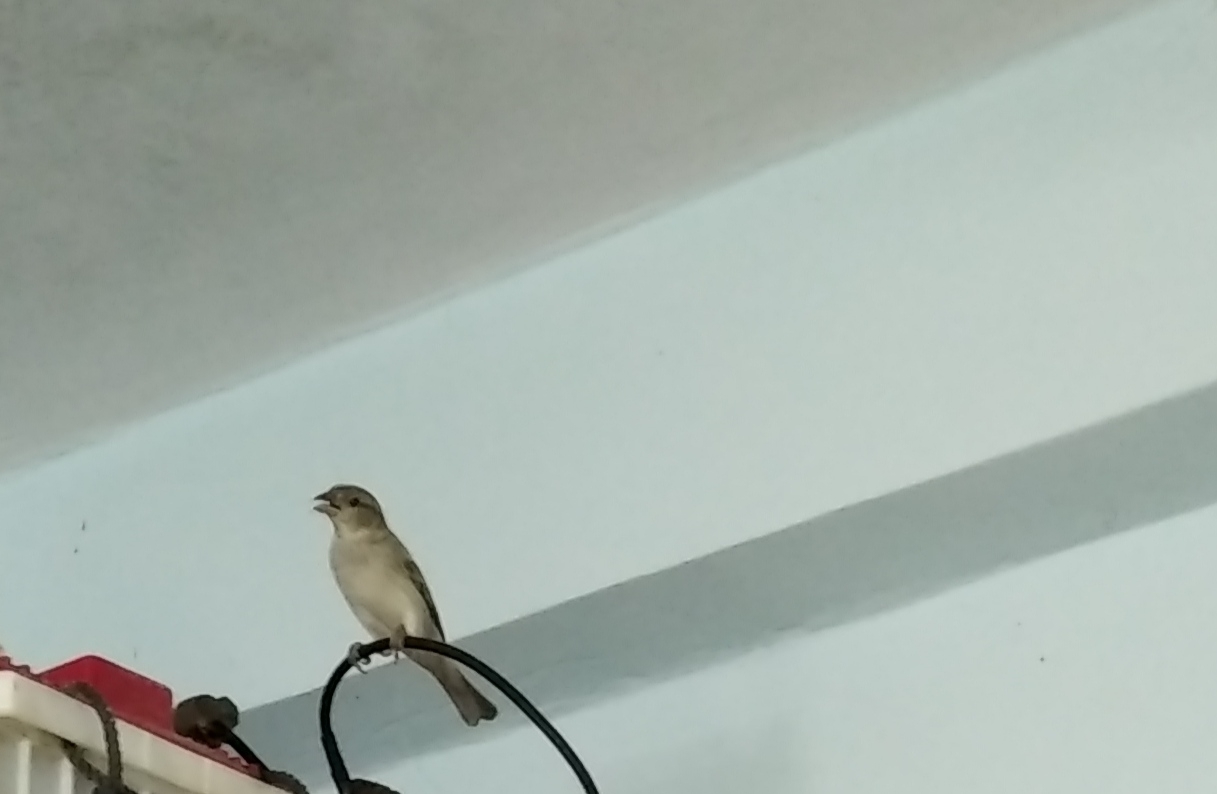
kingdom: Animalia
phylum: Chordata
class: Aves
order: Passeriformes
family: Passeridae
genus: Passer
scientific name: Passer domesticus
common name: House sparrow
